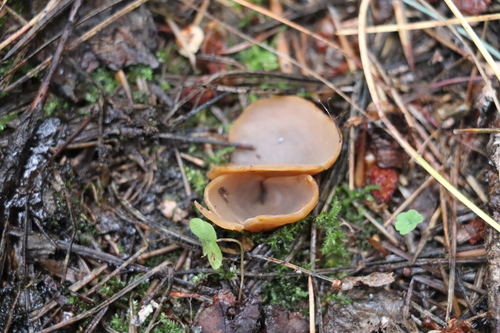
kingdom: Fungi
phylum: Ascomycota
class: Pezizomycetes
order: Pezizales
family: Otideaceae
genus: Otidea
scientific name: Otidea
